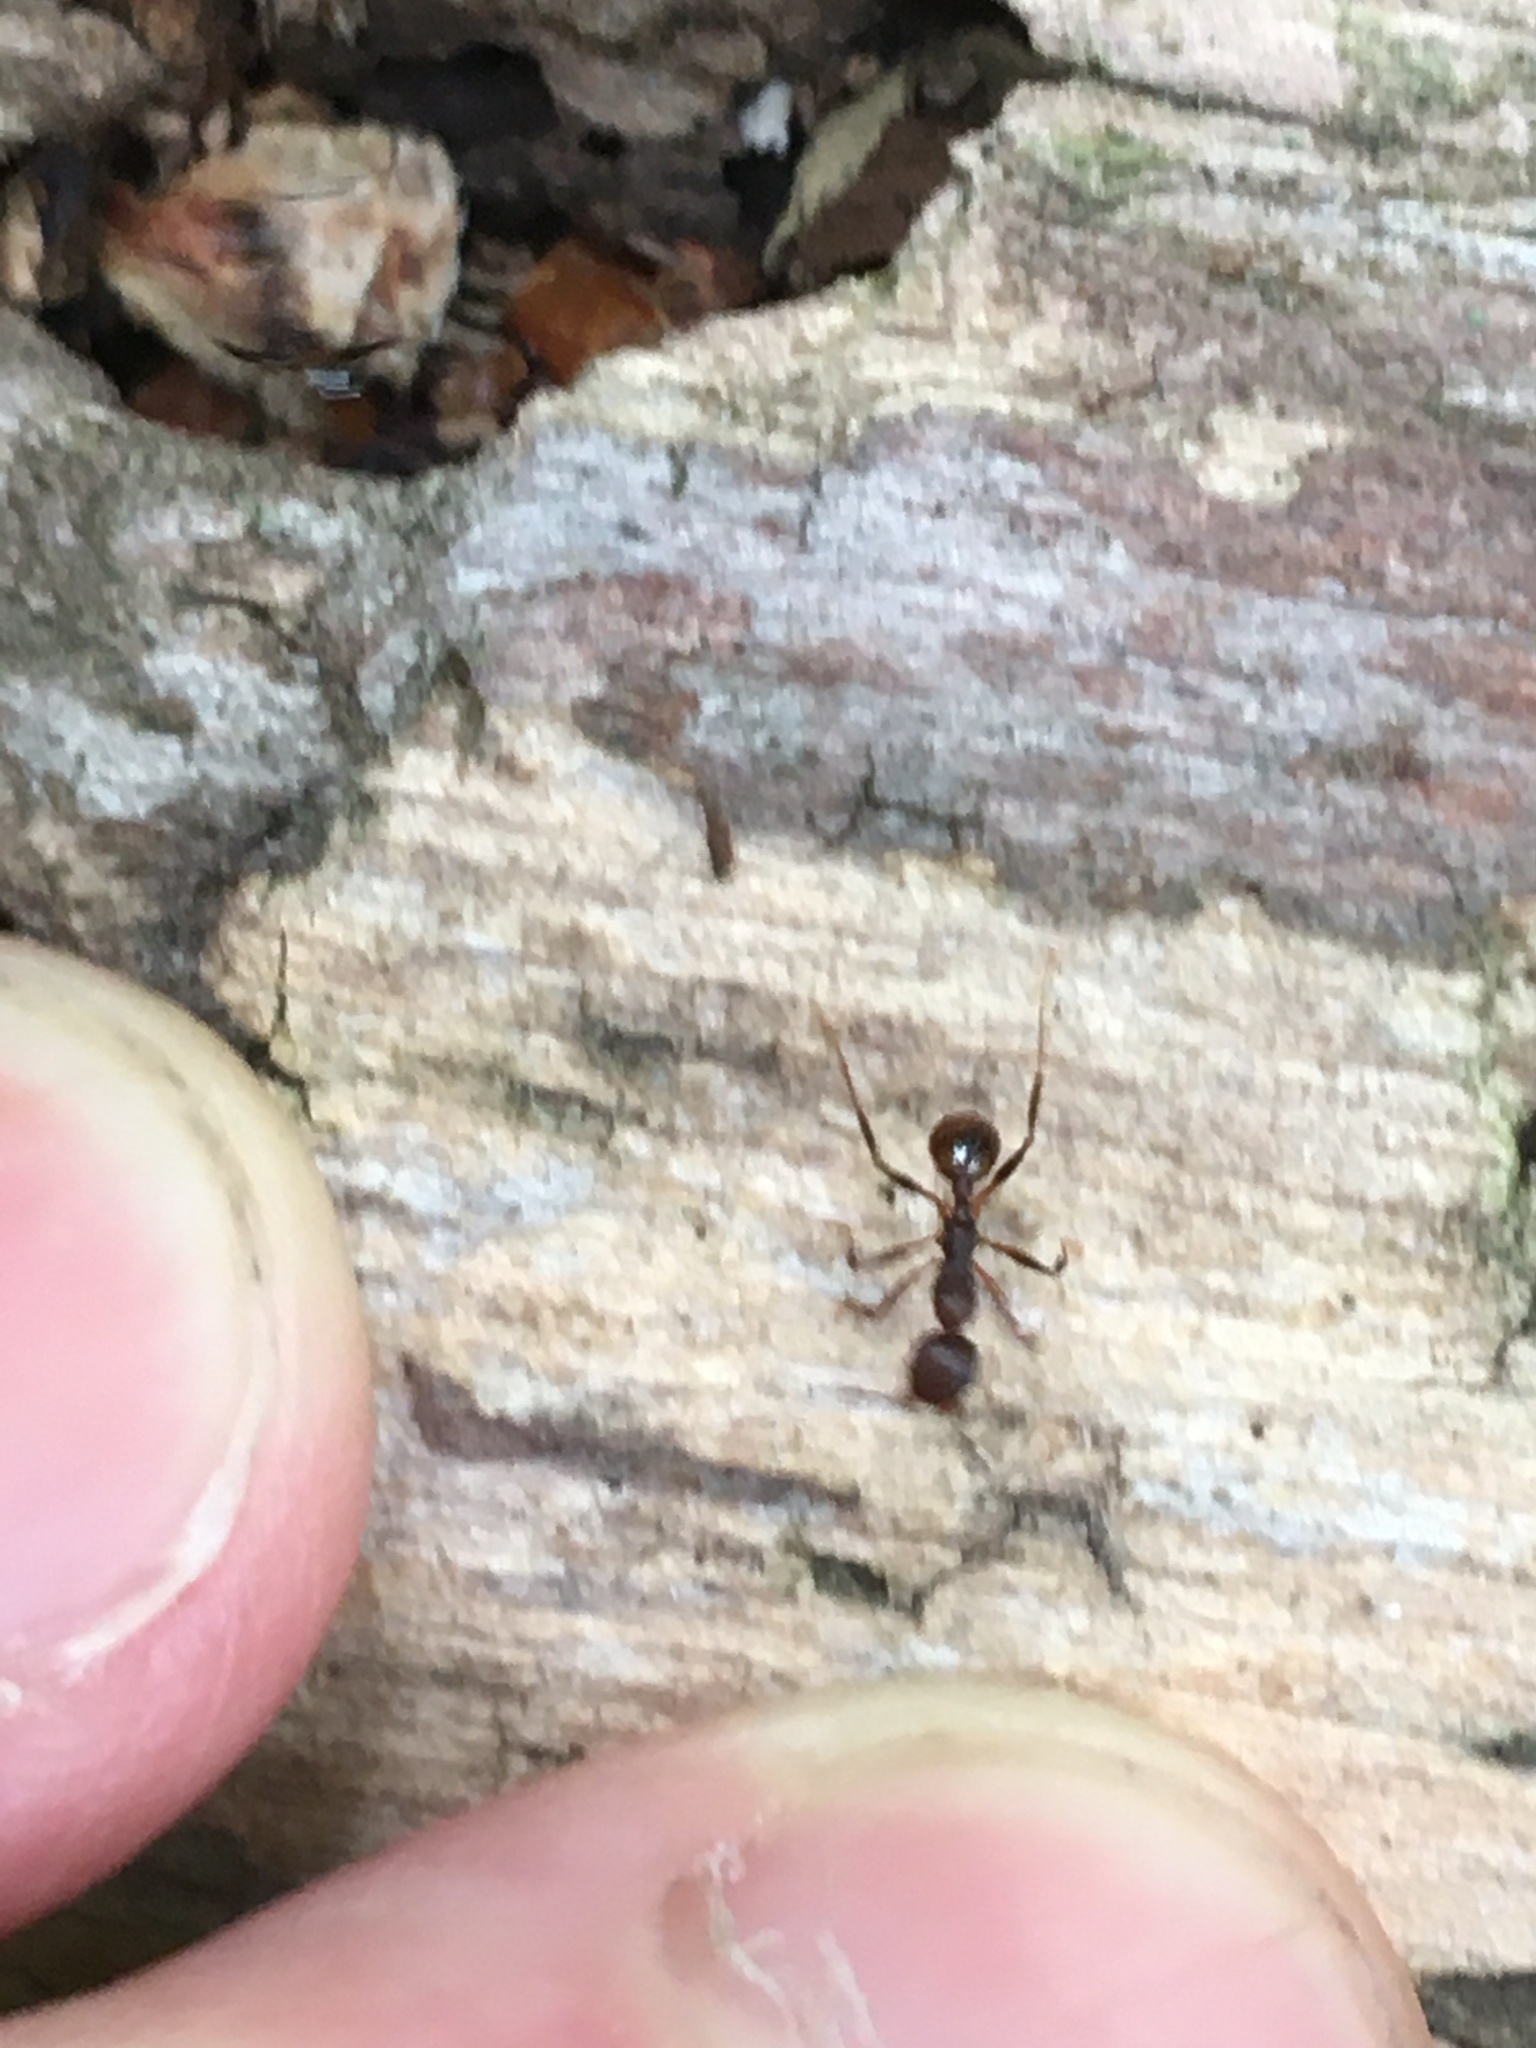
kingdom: Animalia
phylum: Arthropoda
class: Insecta
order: Hymenoptera
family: Formicidae
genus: Aphaenogaster
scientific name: Aphaenogaster
